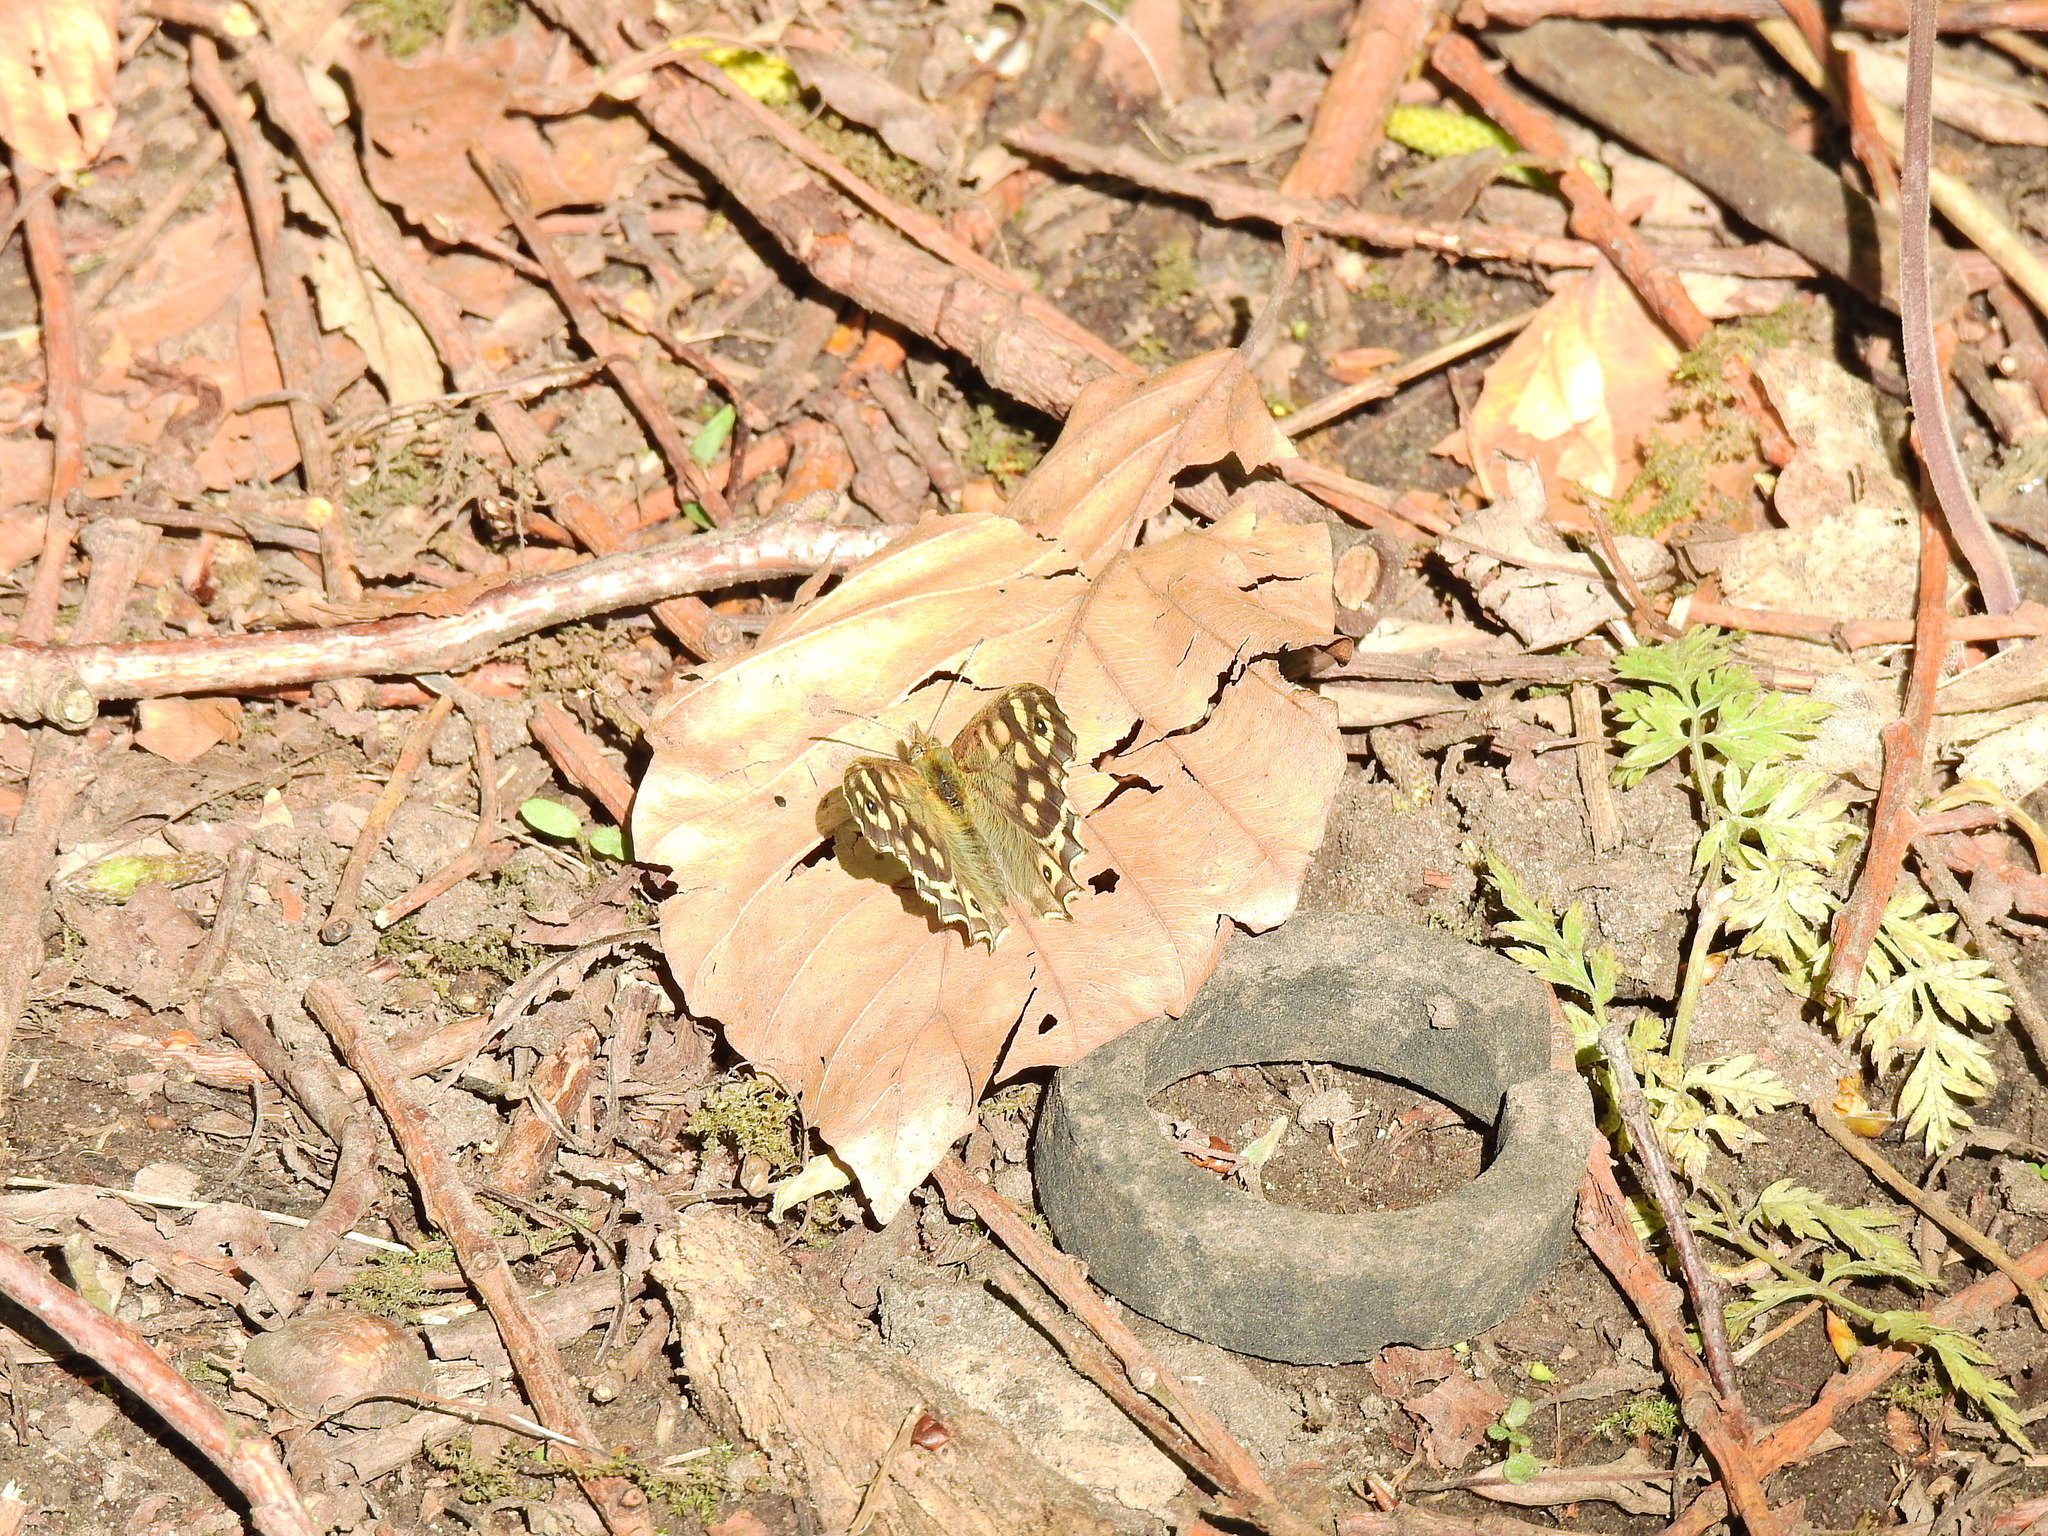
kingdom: Animalia
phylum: Arthropoda
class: Insecta
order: Lepidoptera
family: Nymphalidae
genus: Pararge
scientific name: Pararge aegeria
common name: Speckled wood
